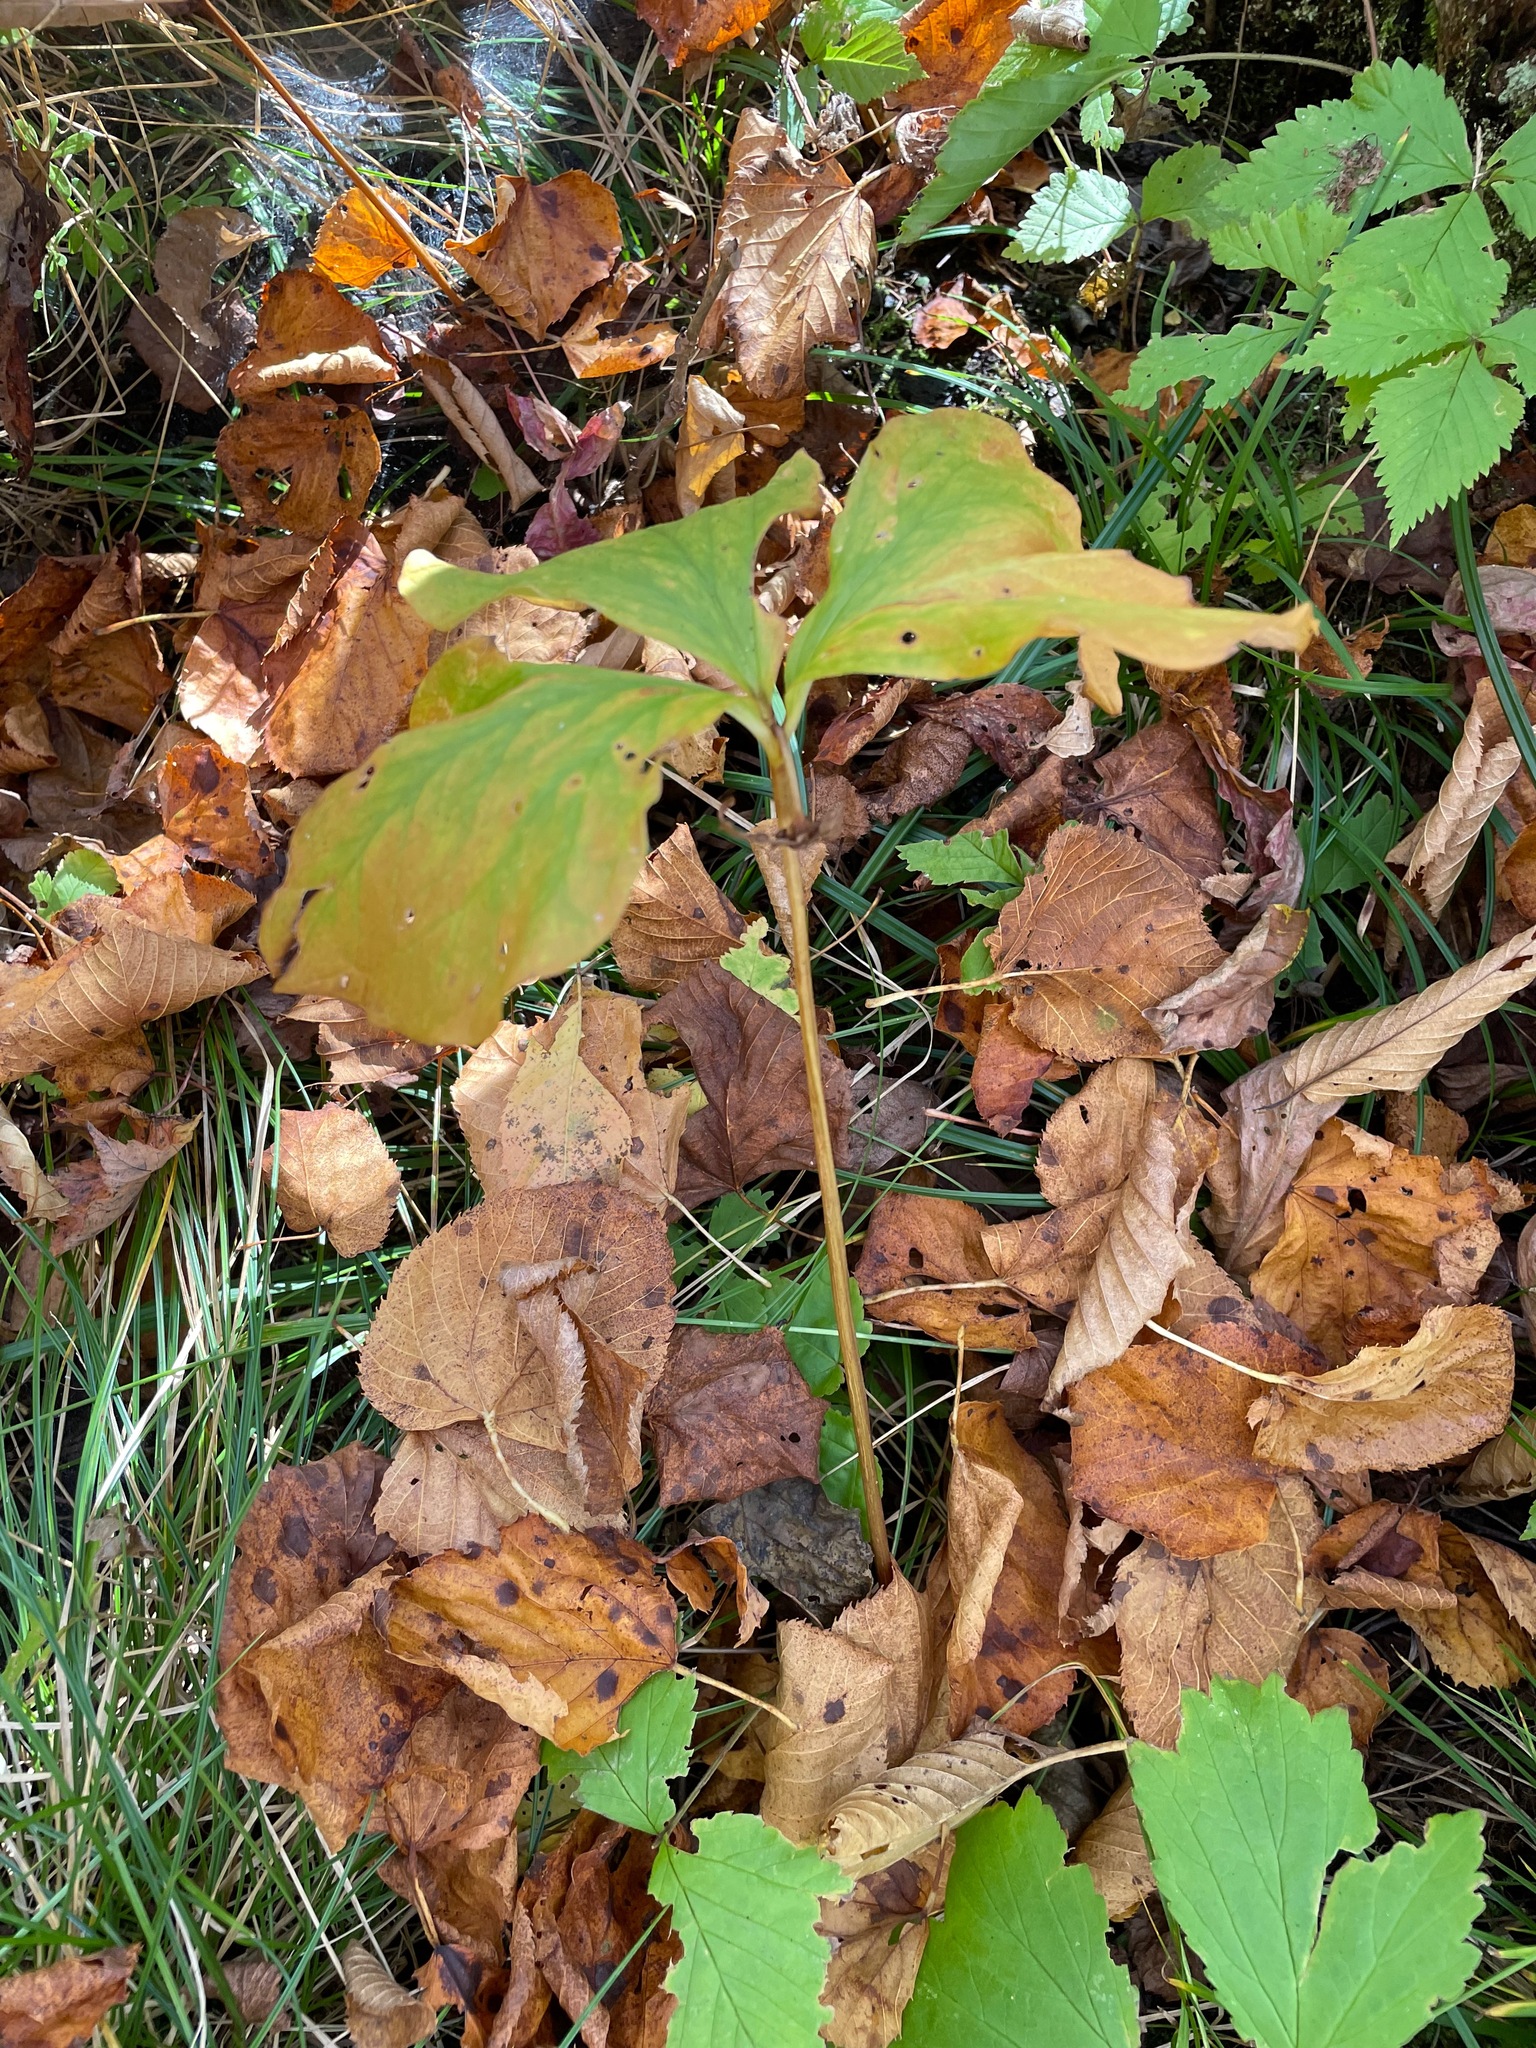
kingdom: Plantae
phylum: Tracheophyta
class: Liliopsida
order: Liliales
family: Melanthiaceae
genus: Trillium
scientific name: Trillium cernuum
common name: Nodding trillium
